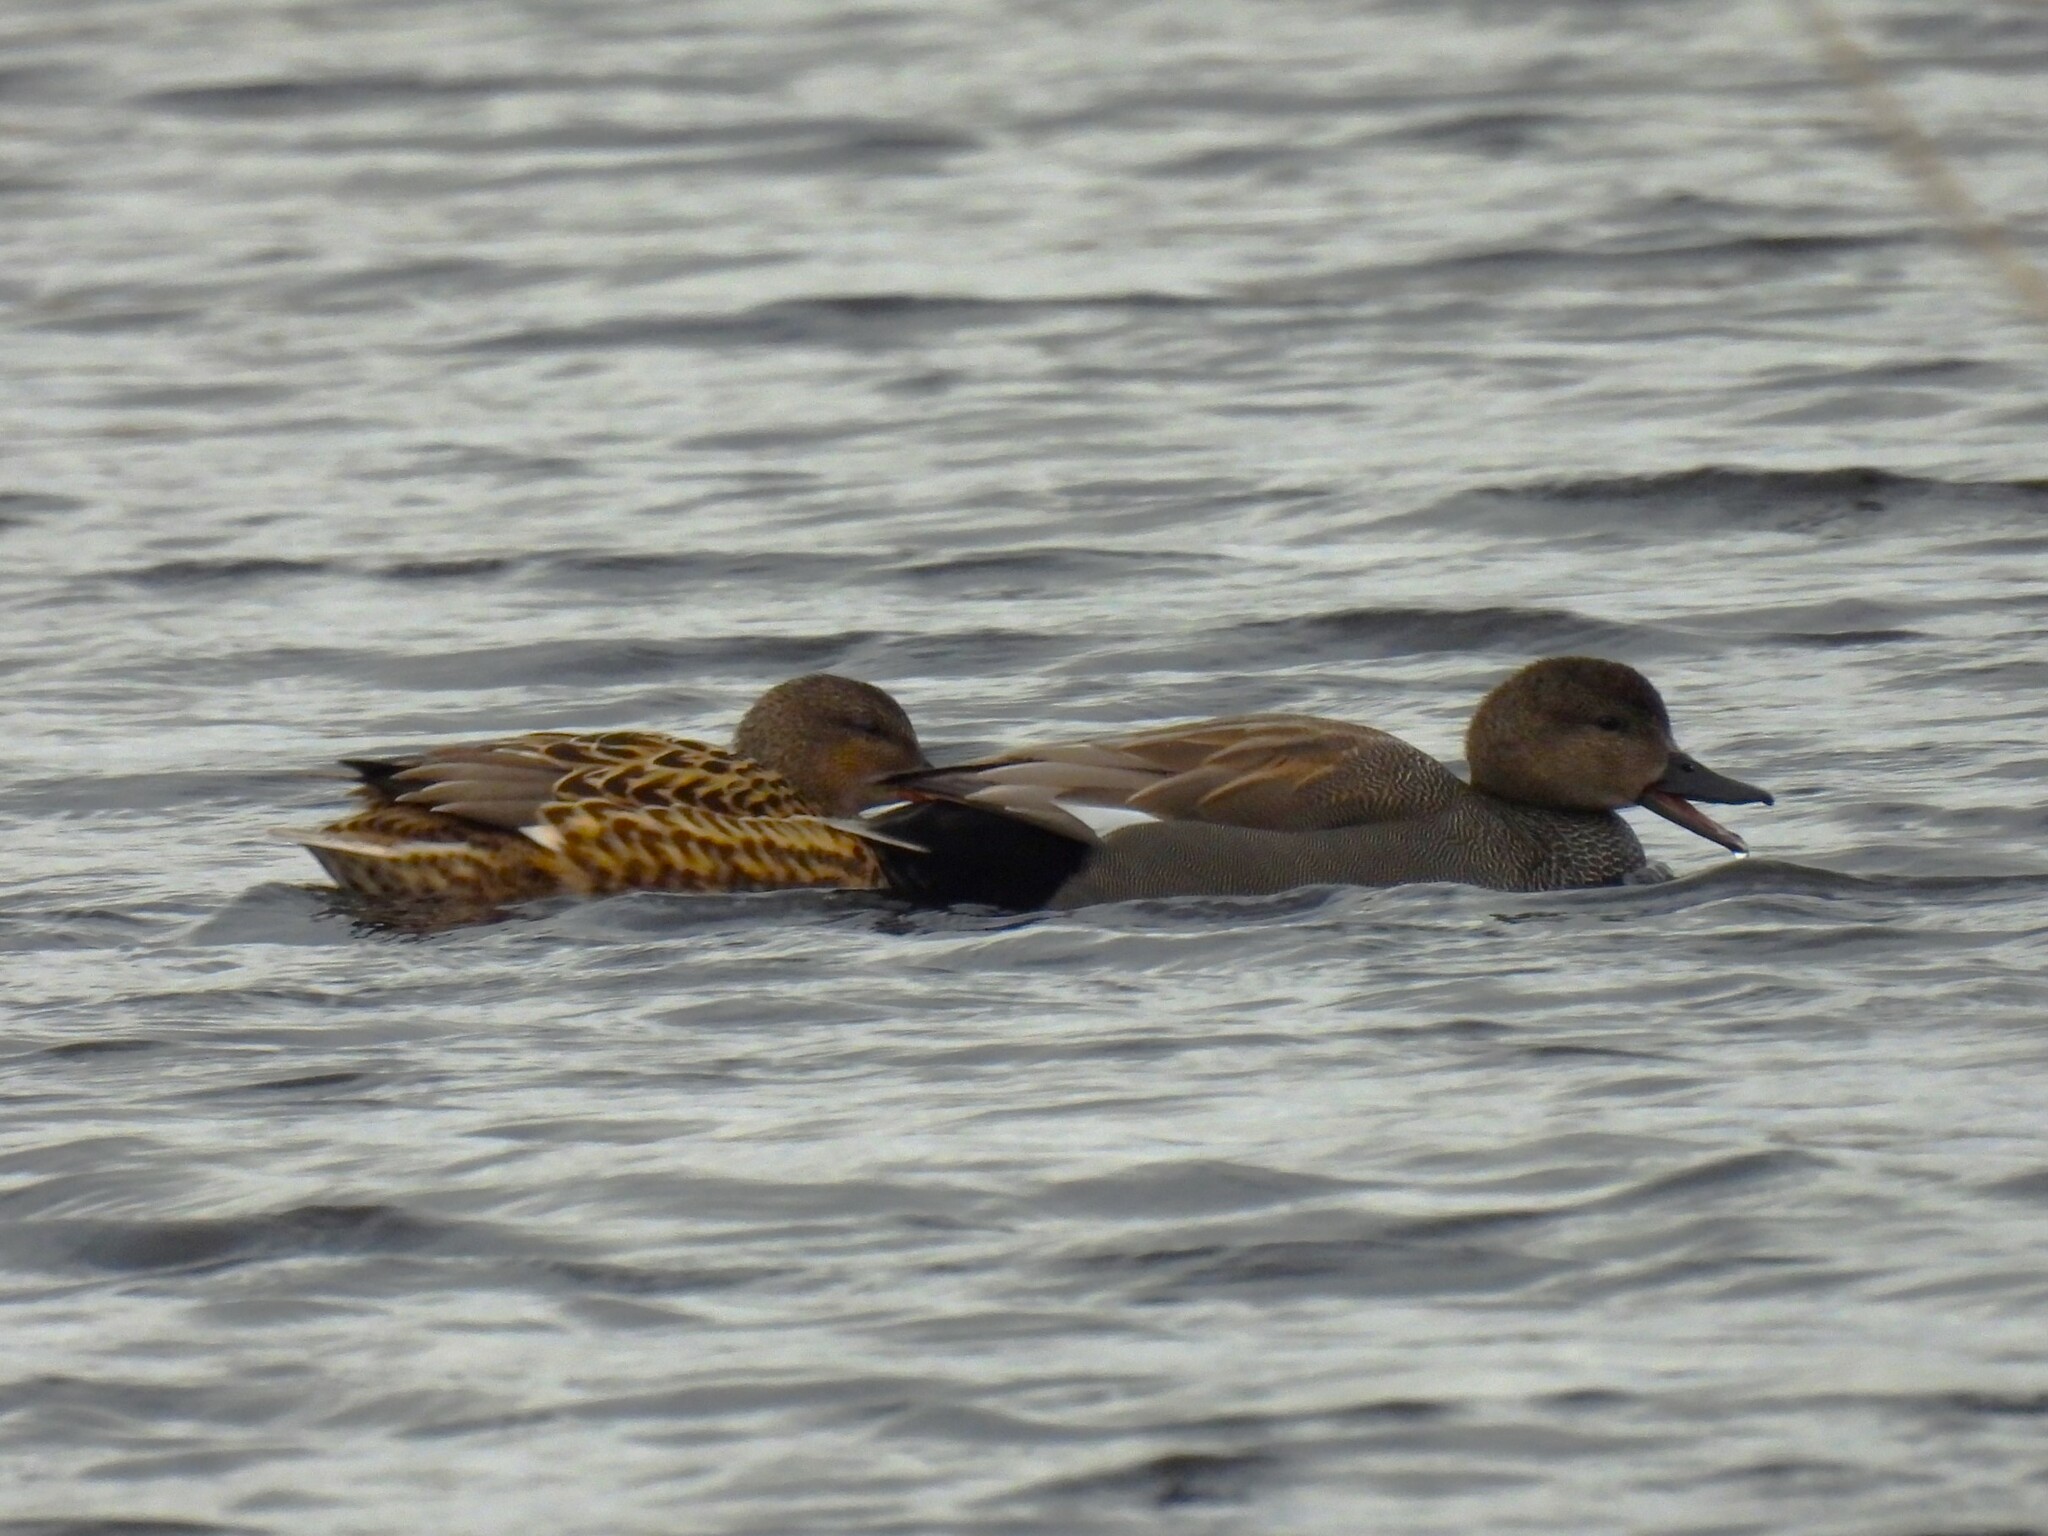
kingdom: Animalia
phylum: Chordata
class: Aves
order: Anseriformes
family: Anatidae
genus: Mareca
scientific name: Mareca strepera
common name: Gadwall
